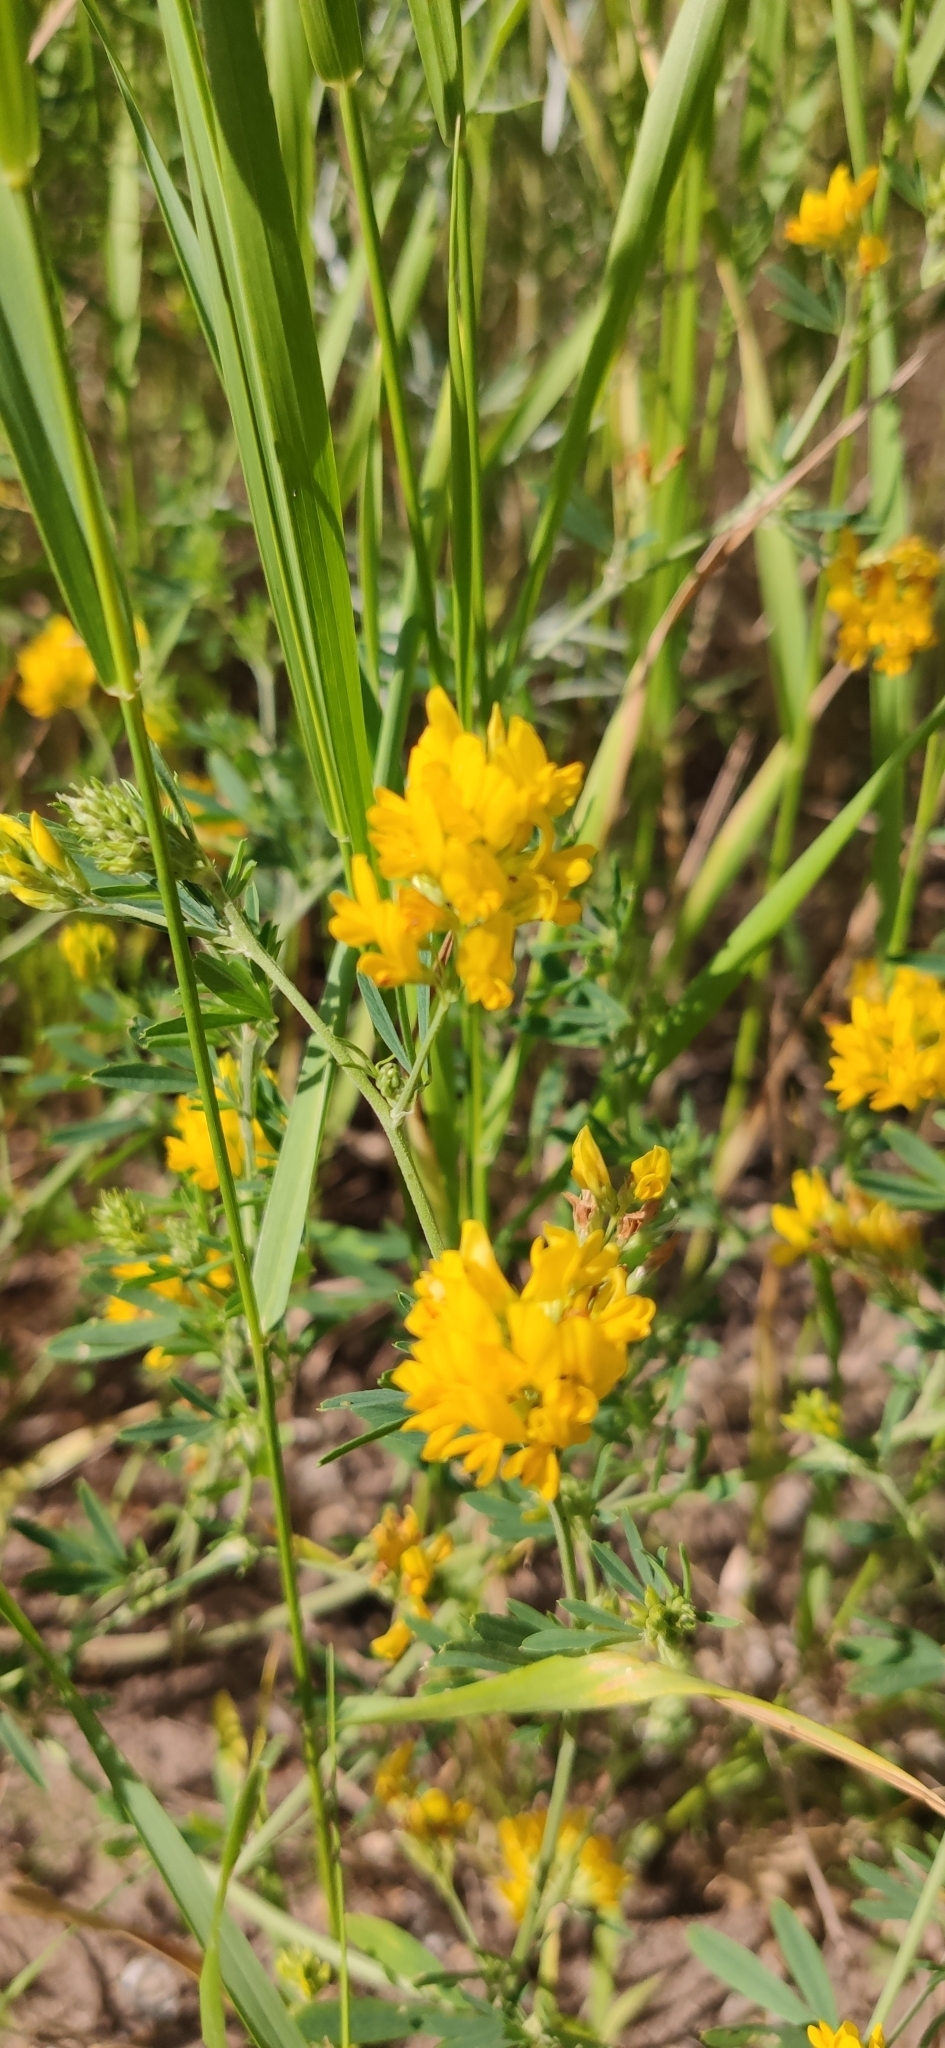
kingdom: Plantae
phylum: Tracheophyta
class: Magnoliopsida
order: Fabales
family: Fabaceae
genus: Medicago
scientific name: Medicago falcata
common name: Sickle medick
